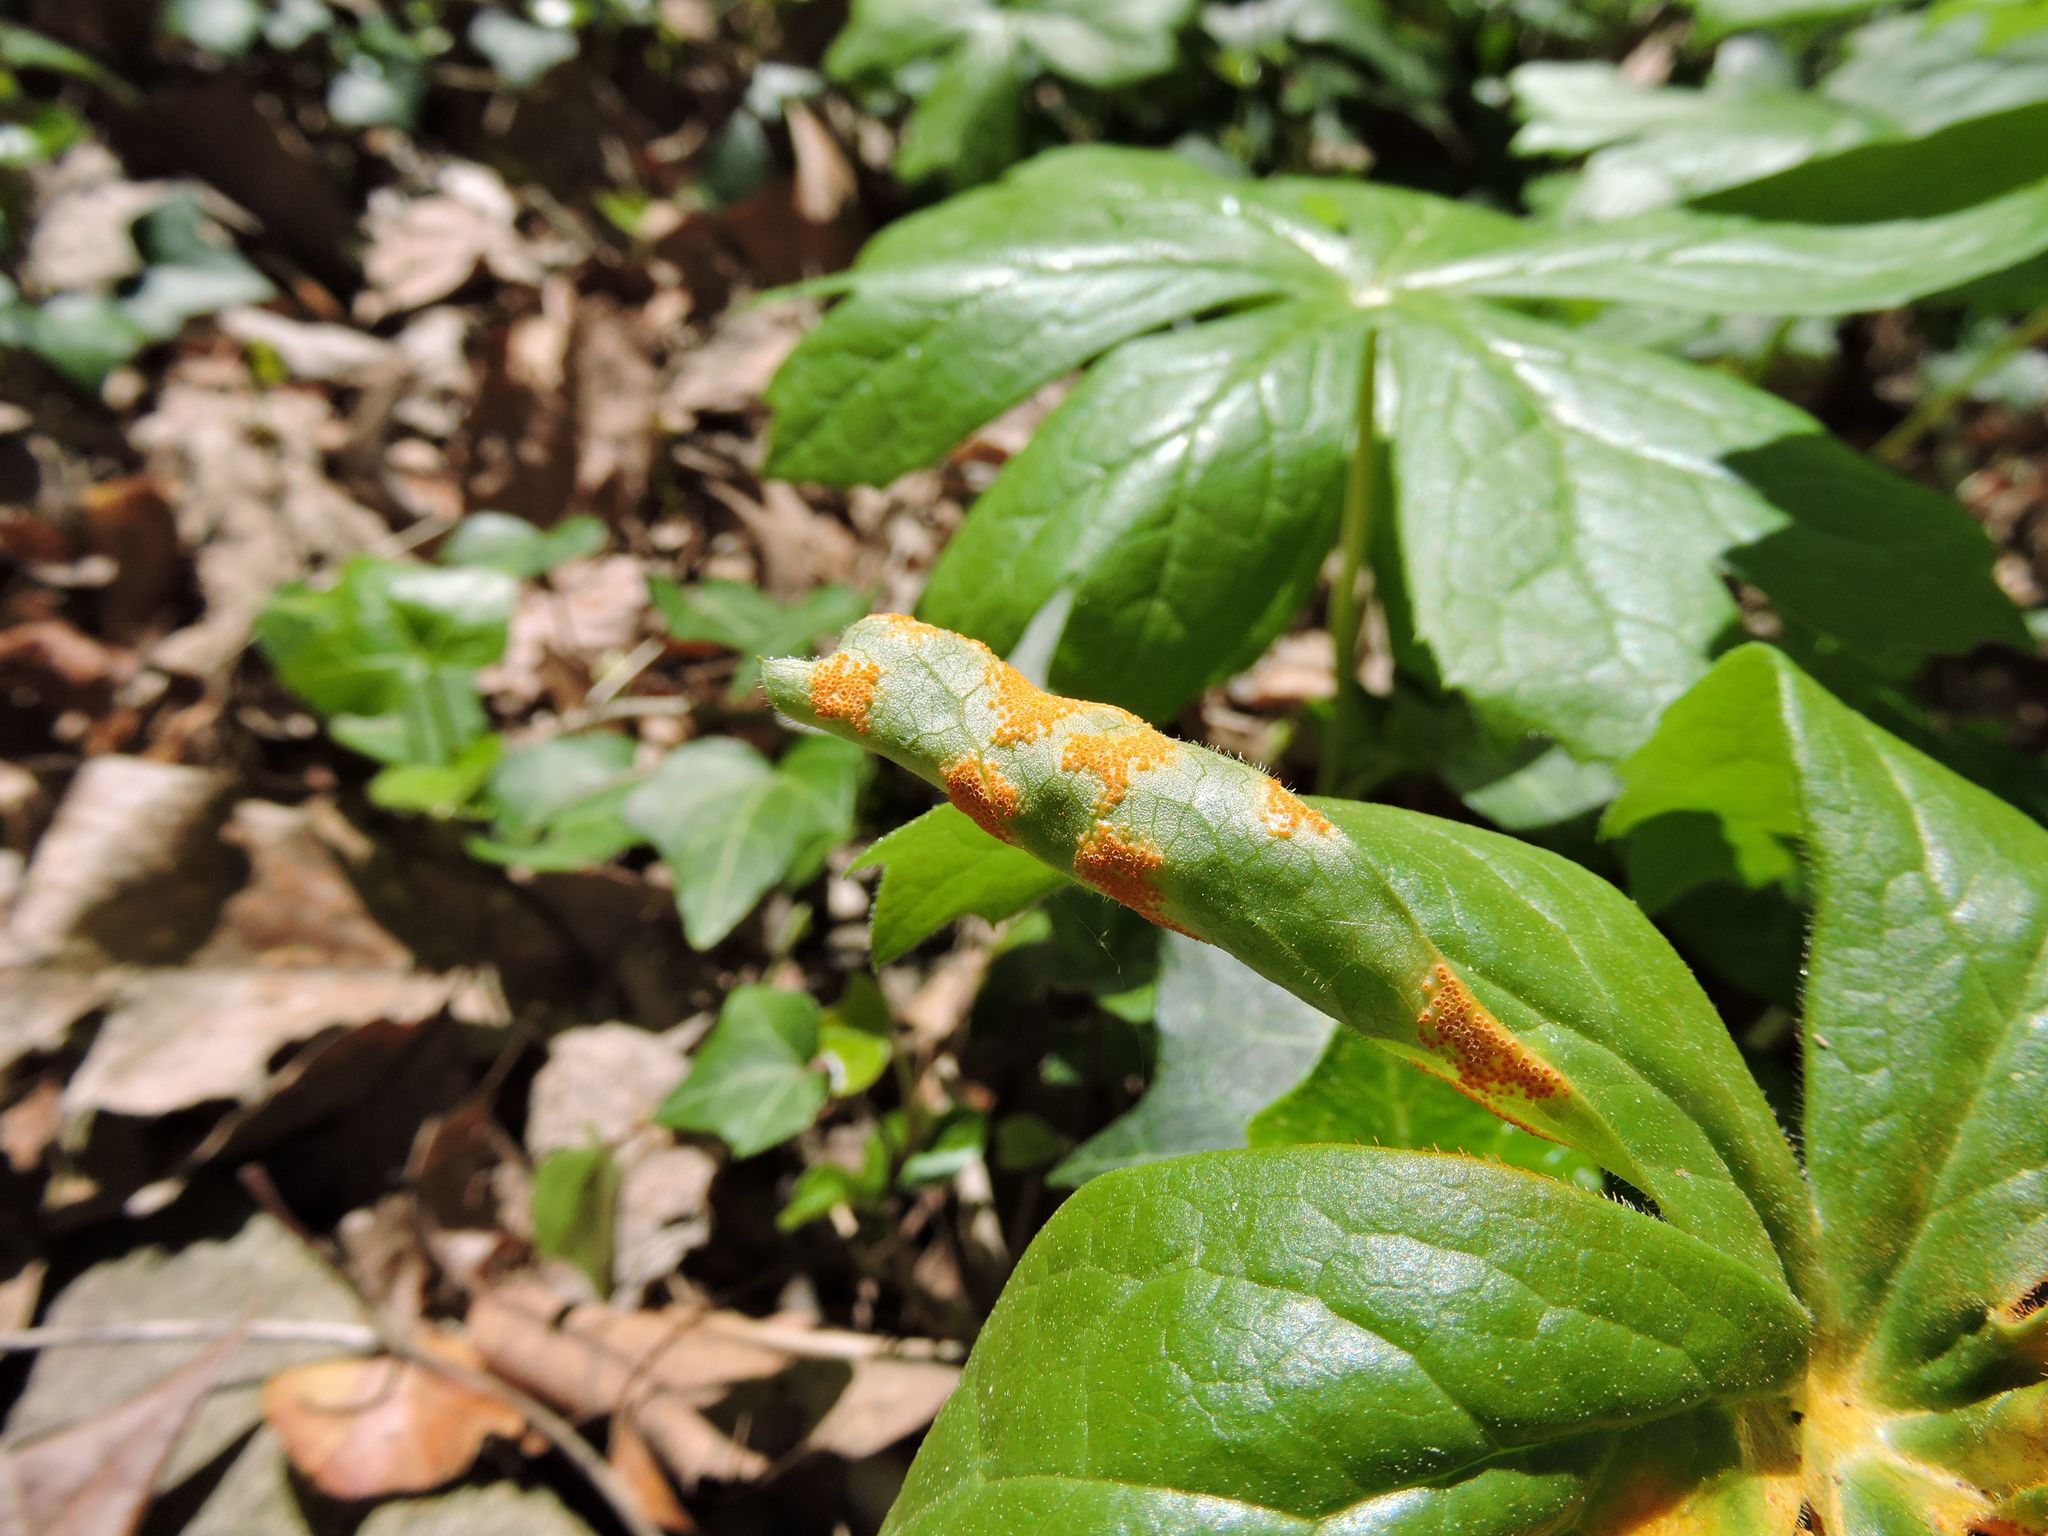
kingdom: Fungi
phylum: Basidiomycota
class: Pucciniomycetes
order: Pucciniales
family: Pucciniaceae
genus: Puccinia
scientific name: Puccinia podophylli
